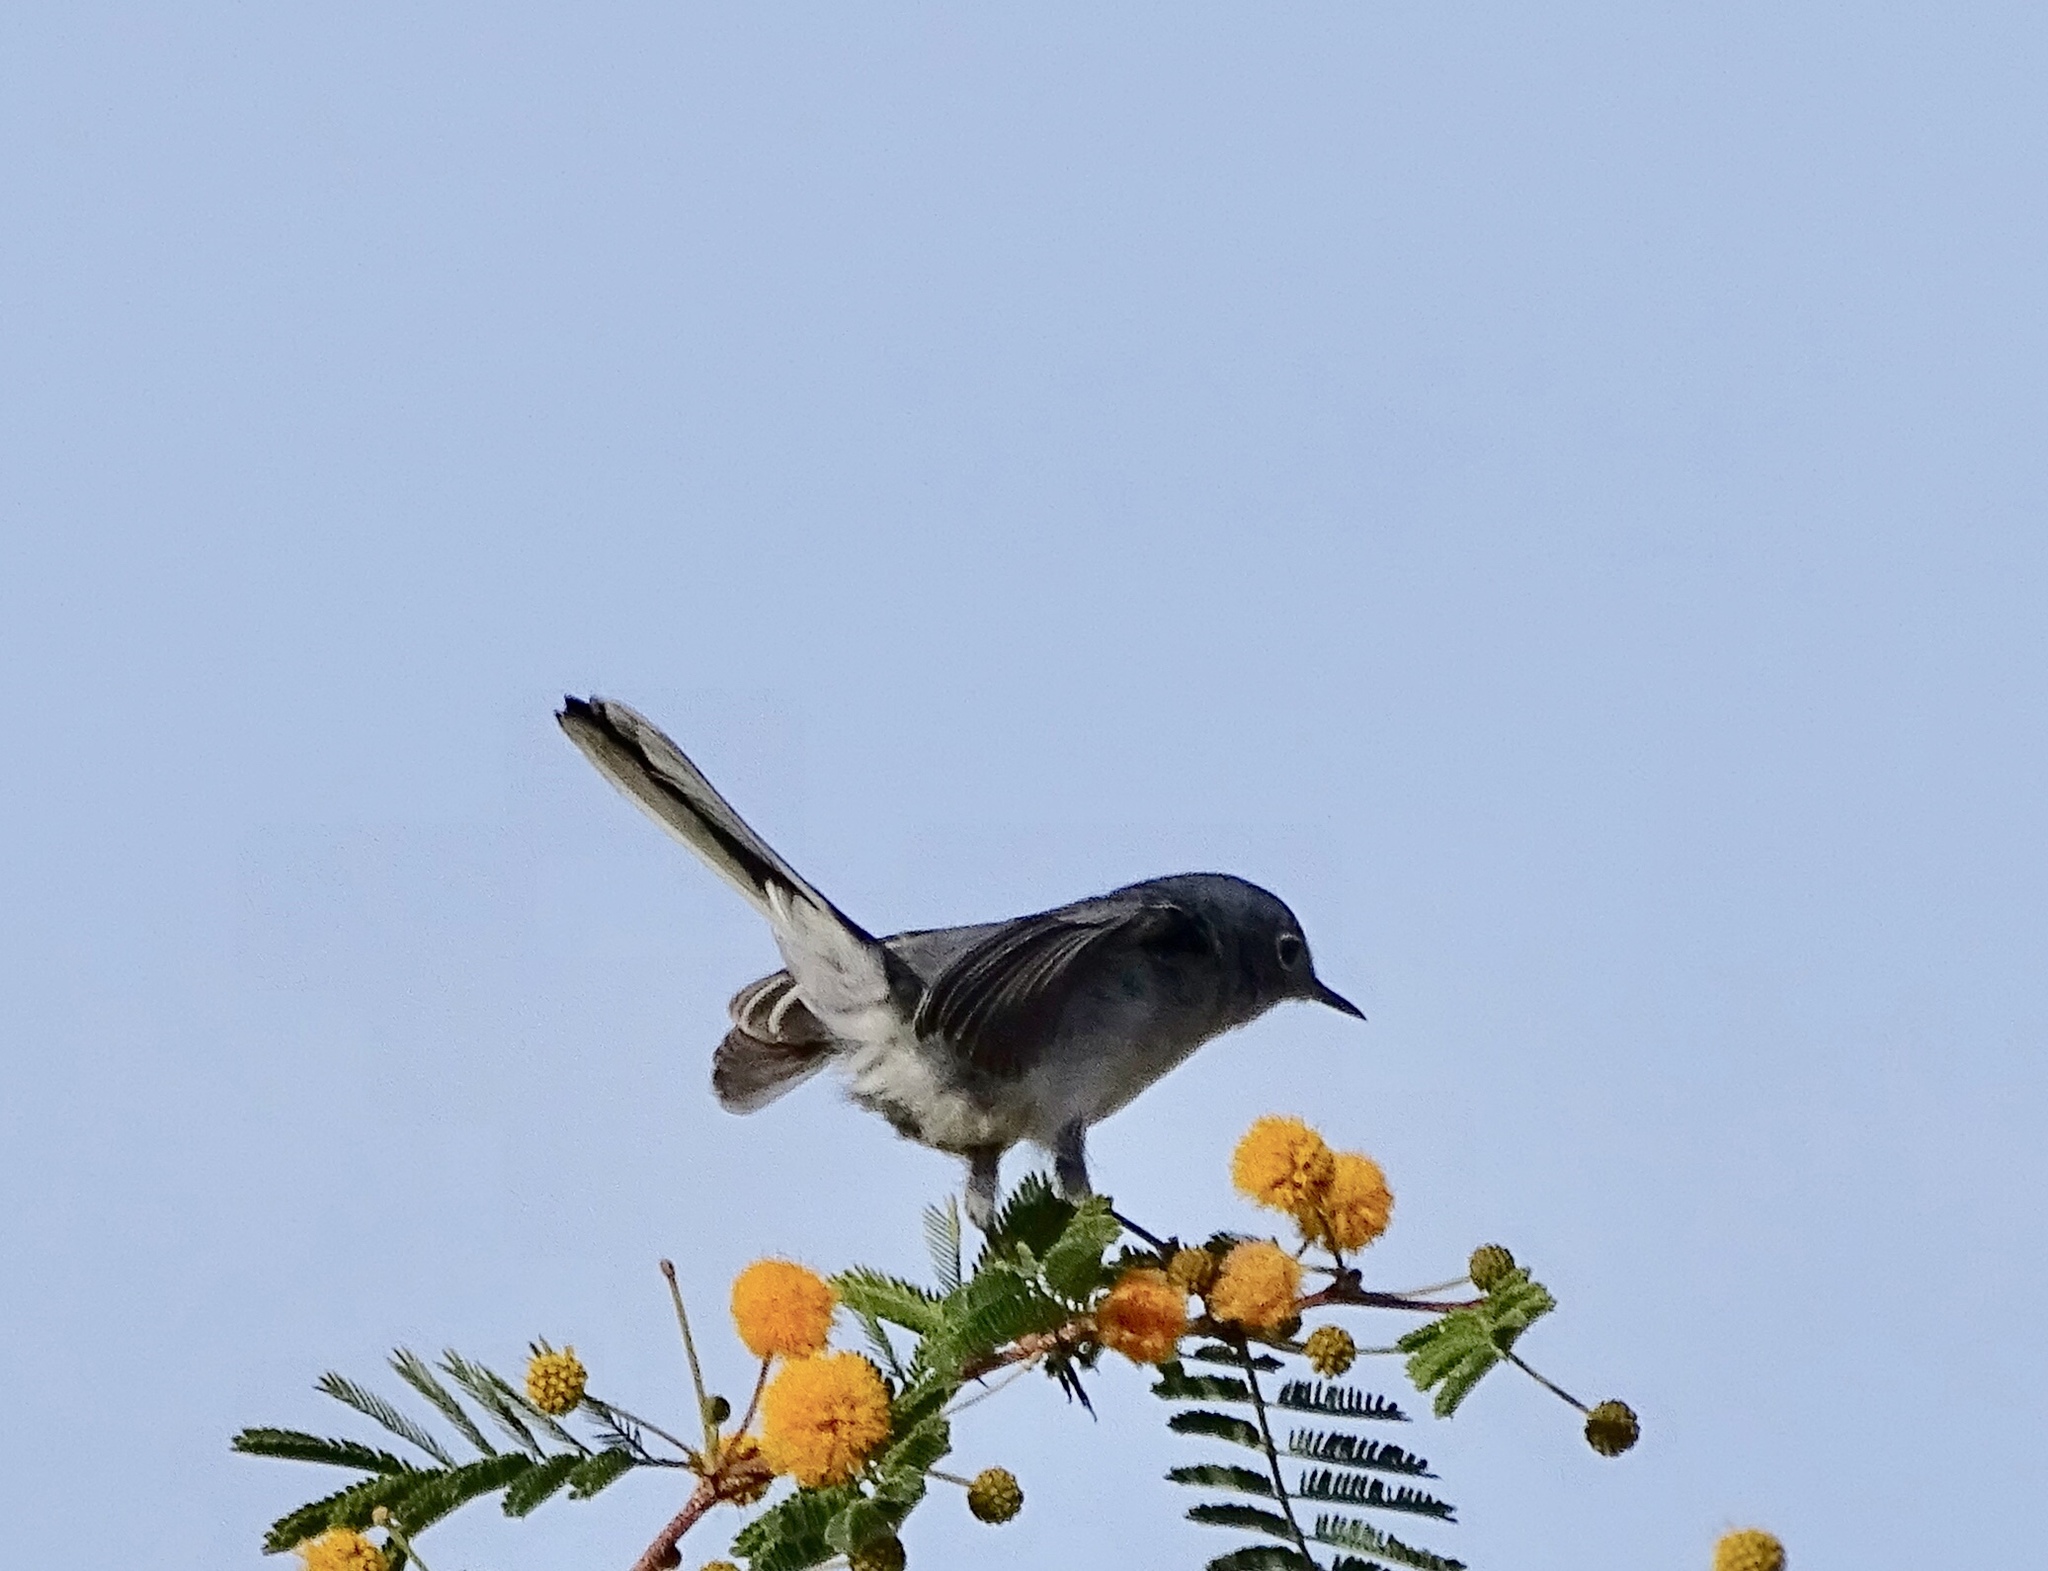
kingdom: Animalia
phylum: Chordata
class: Aves
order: Passeriformes
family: Polioptilidae
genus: Polioptila
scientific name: Polioptila caerulea
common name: Blue-gray gnatcatcher
